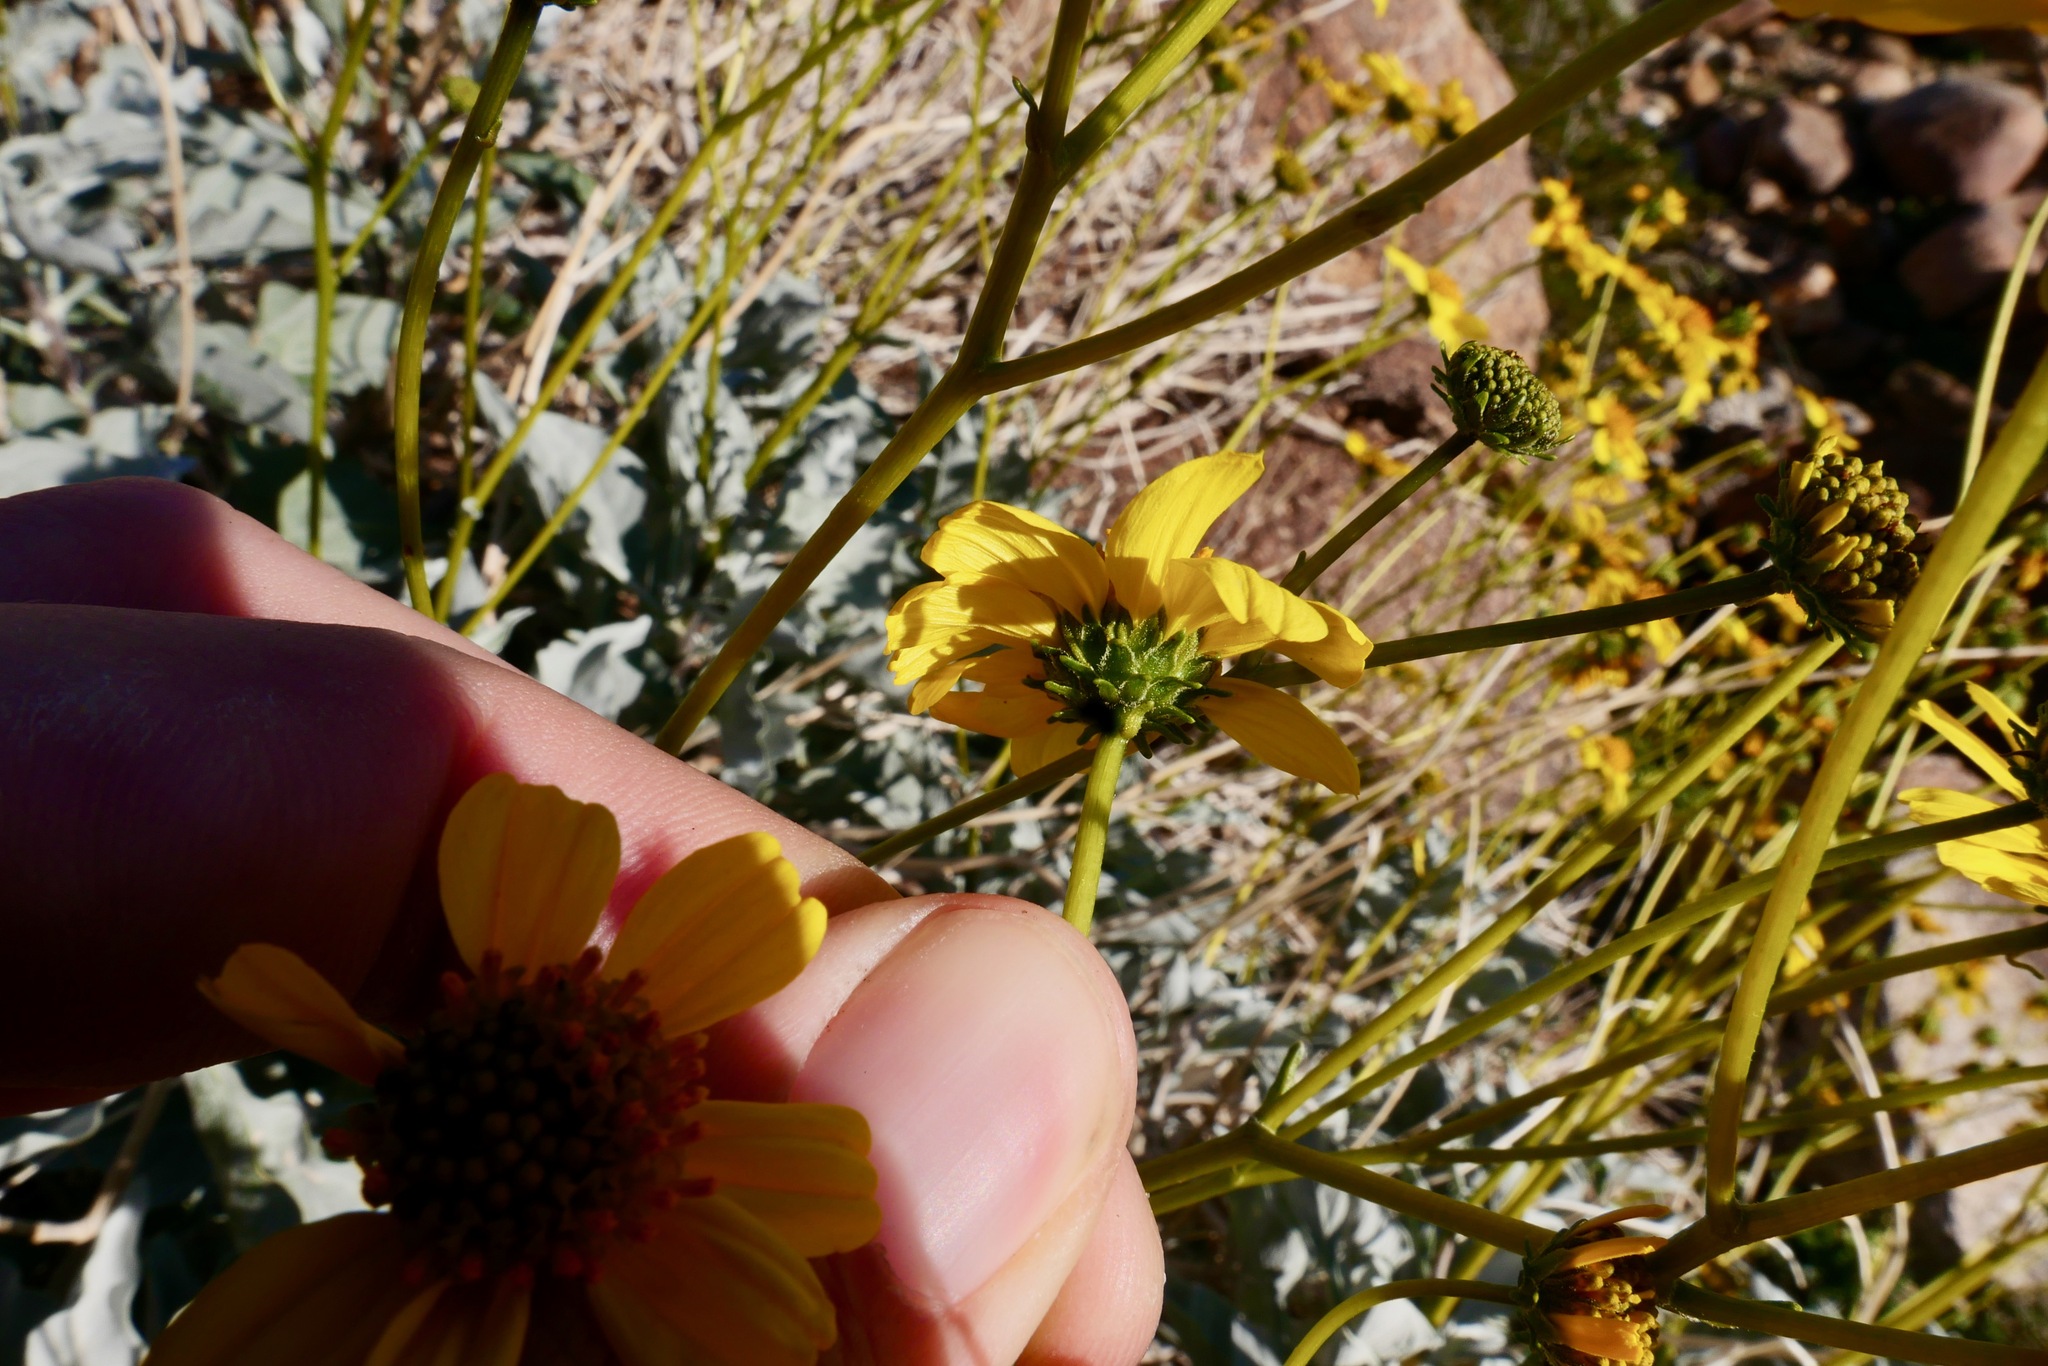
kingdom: Plantae
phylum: Tracheophyta
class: Magnoliopsida
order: Asterales
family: Asteraceae
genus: Encelia
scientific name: Encelia farinosa
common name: Brittlebush
